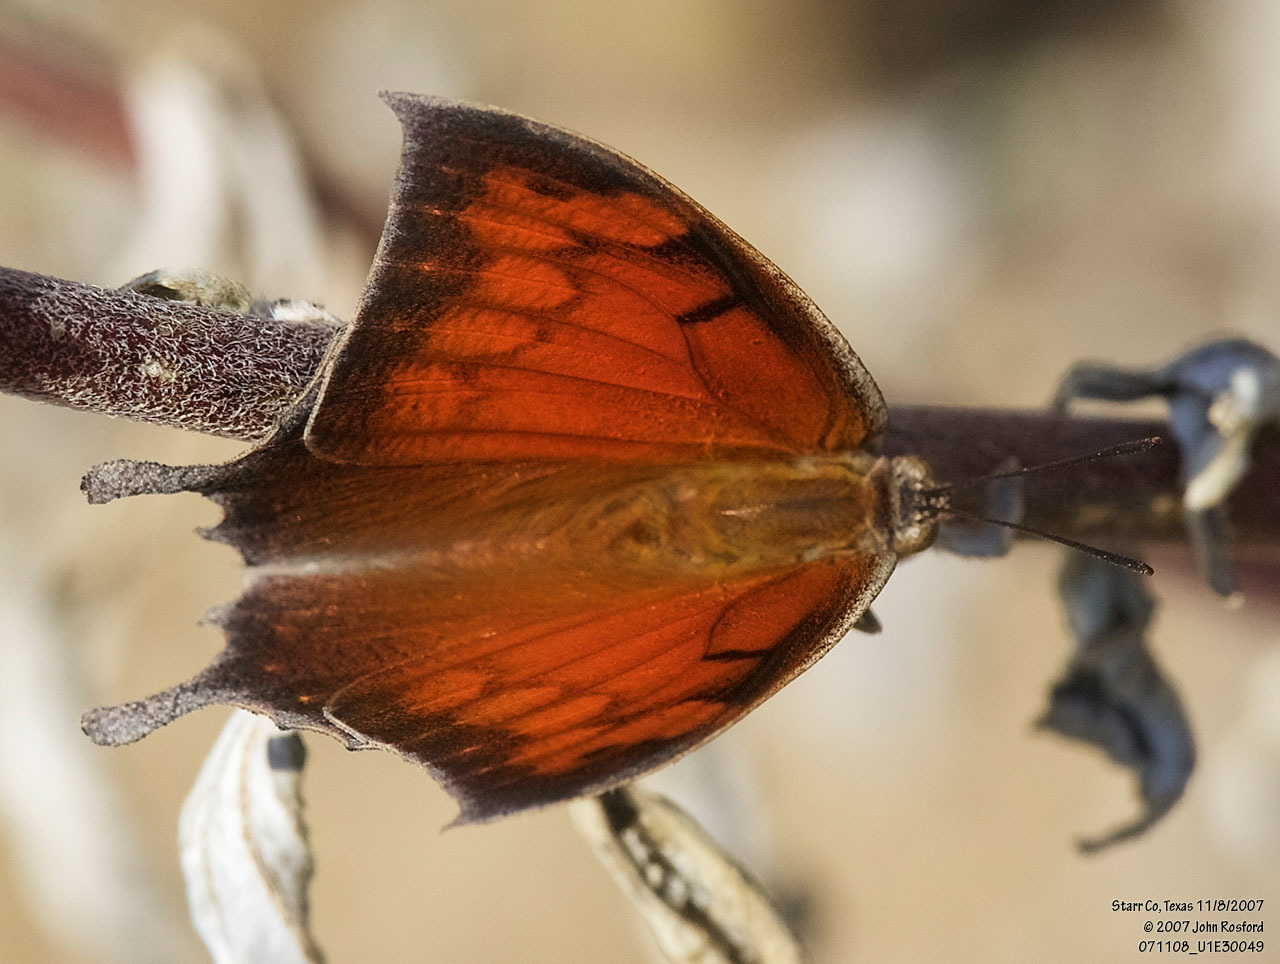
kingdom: Animalia
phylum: Arthropoda
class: Insecta
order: Lepidoptera
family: Nymphalidae
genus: Anaea
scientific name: Anaea aidea
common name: Tropical leafwing
